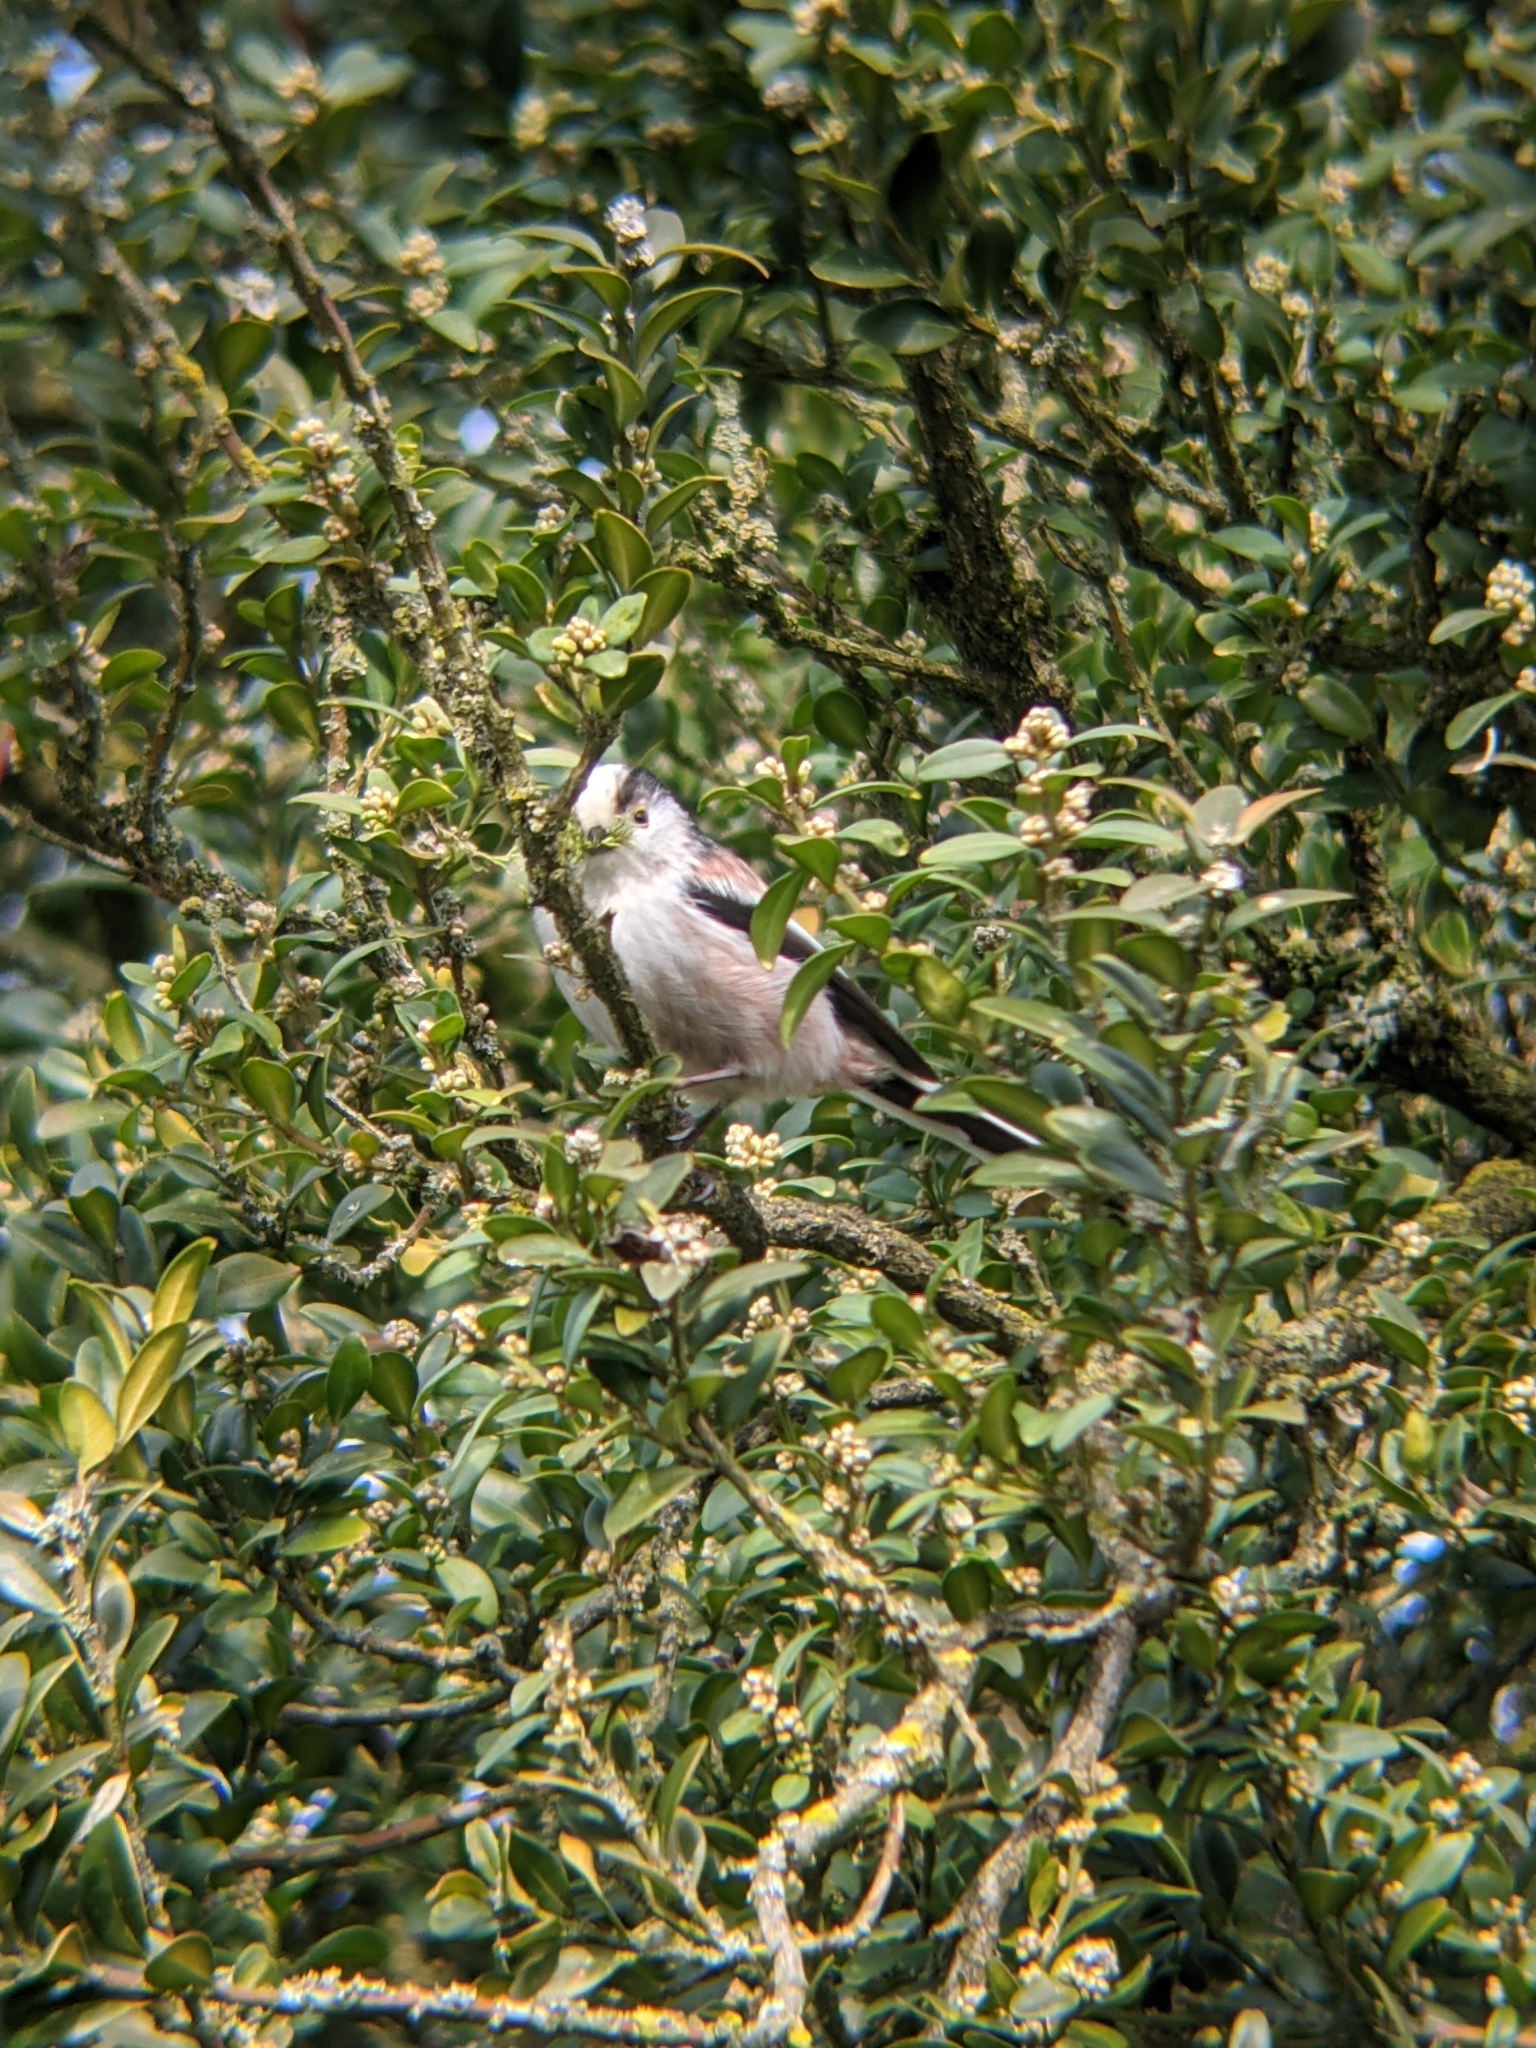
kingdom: Animalia
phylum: Chordata
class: Aves
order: Passeriformes
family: Aegithalidae
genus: Aegithalos
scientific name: Aegithalos caudatus
